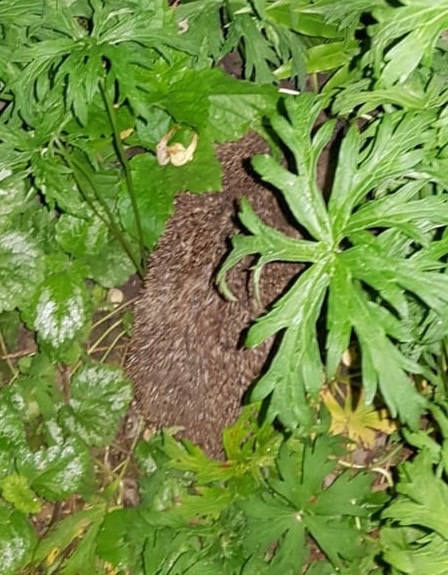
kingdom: Animalia
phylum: Chordata
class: Mammalia
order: Erinaceomorpha
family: Erinaceidae
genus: Erinaceus
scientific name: Erinaceus europaeus
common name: West european hedgehog
